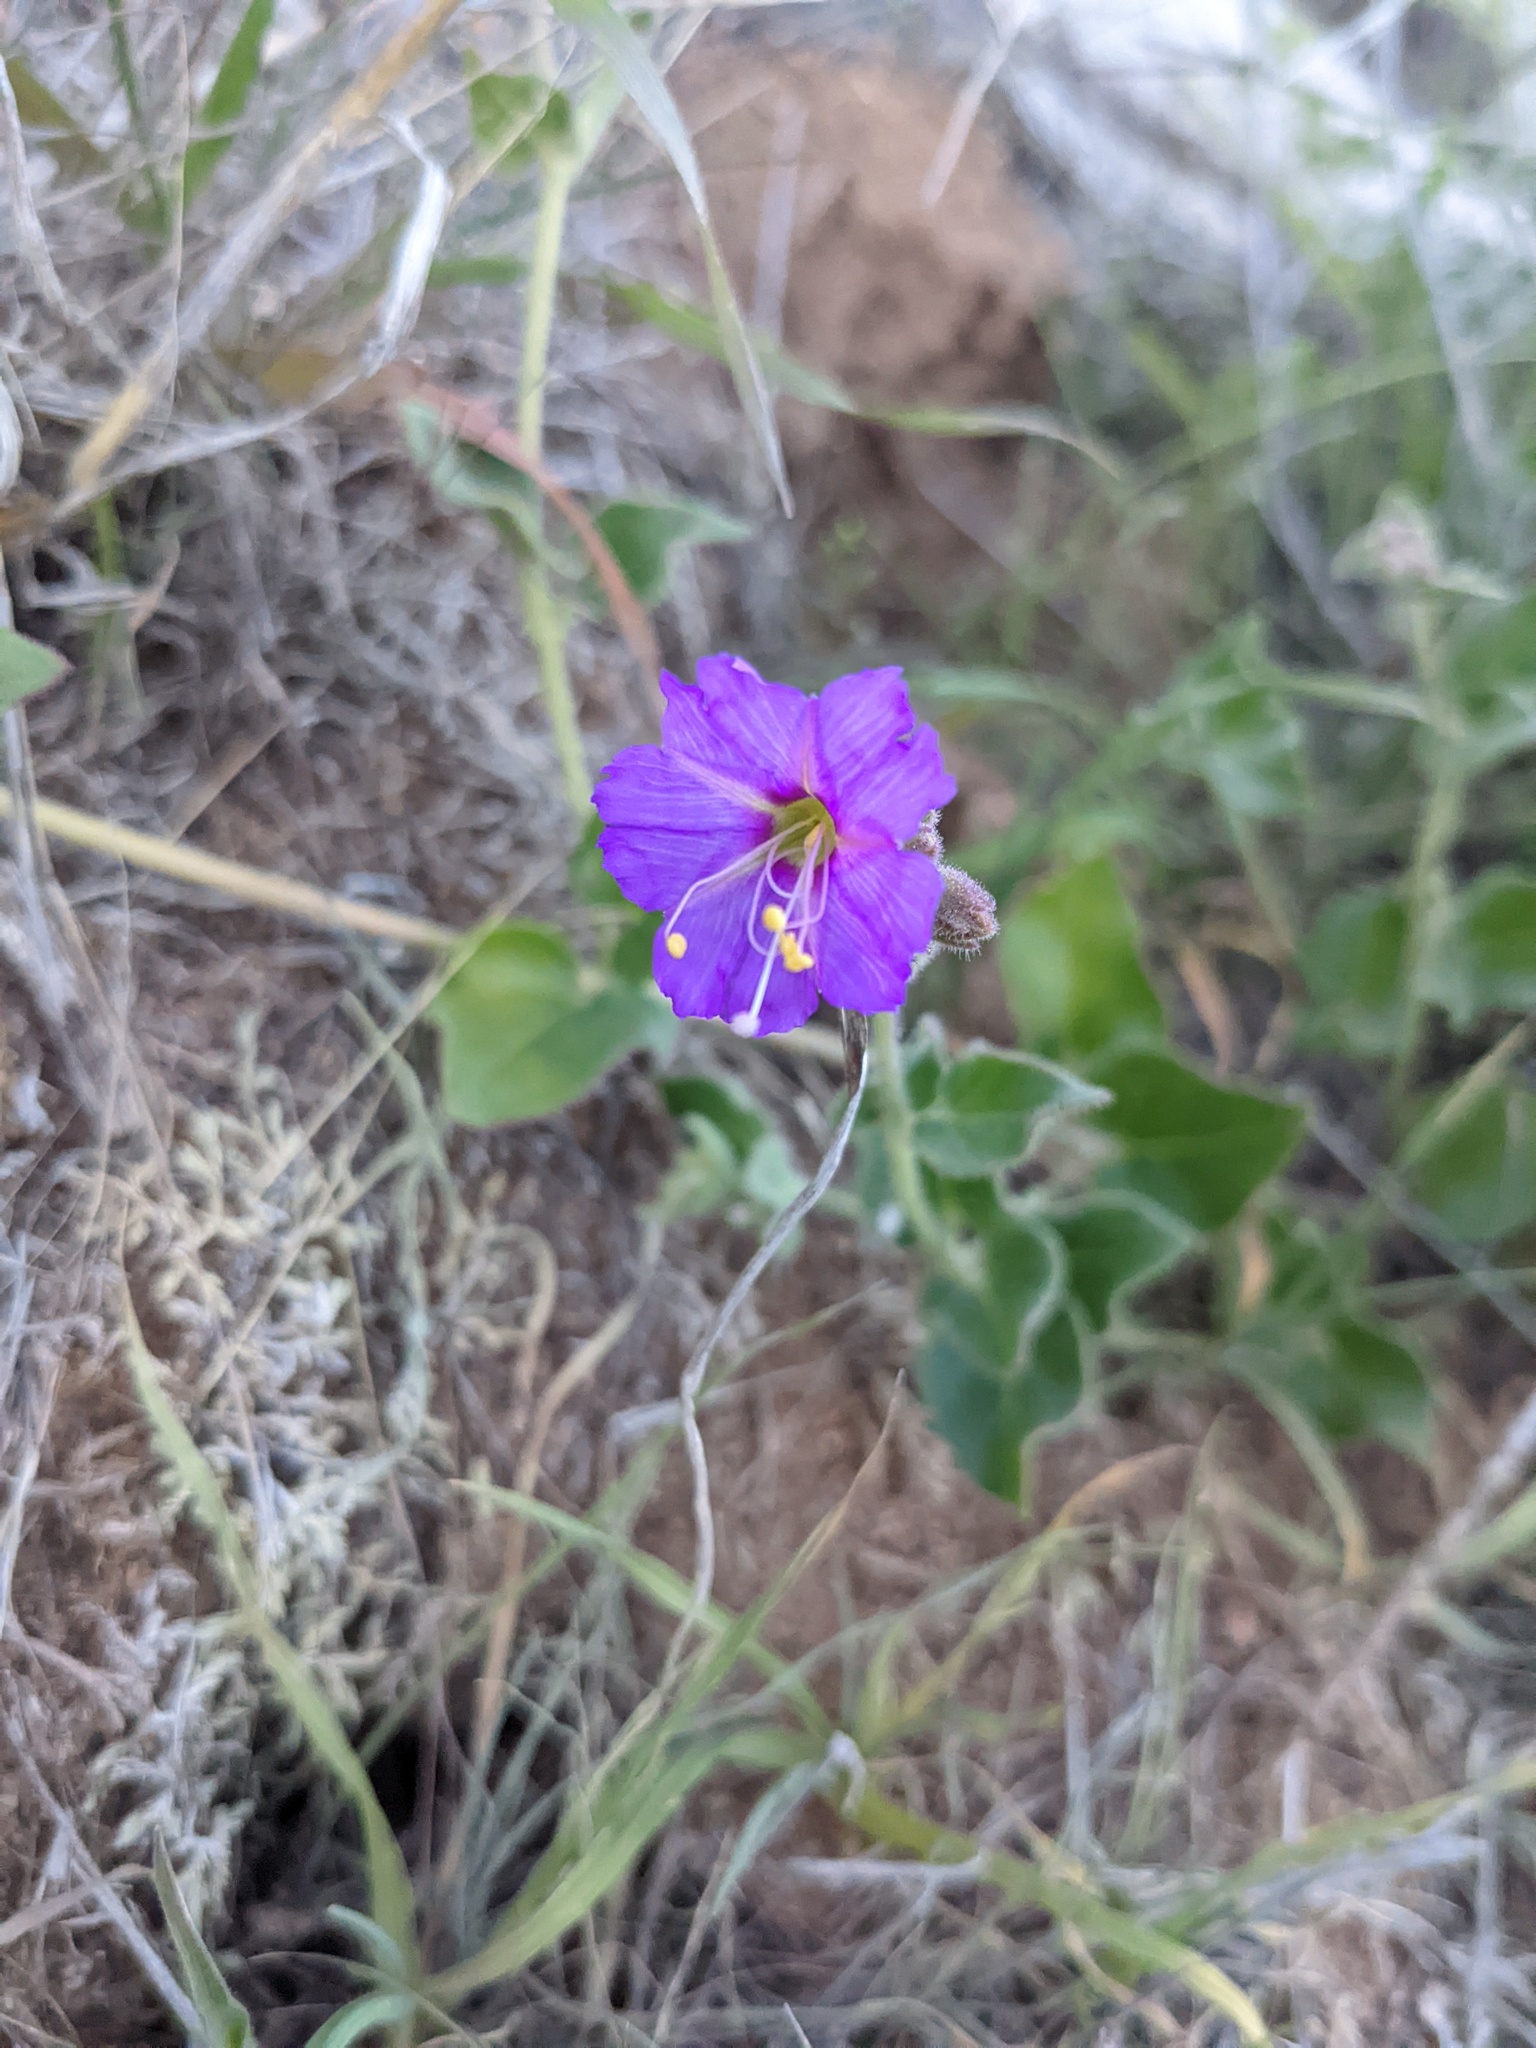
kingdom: Plantae
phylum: Tracheophyta
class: Magnoliopsida
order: Caryophyllales
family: Nyctaginaceae
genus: Mirabilis
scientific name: Mirabilis laevis
